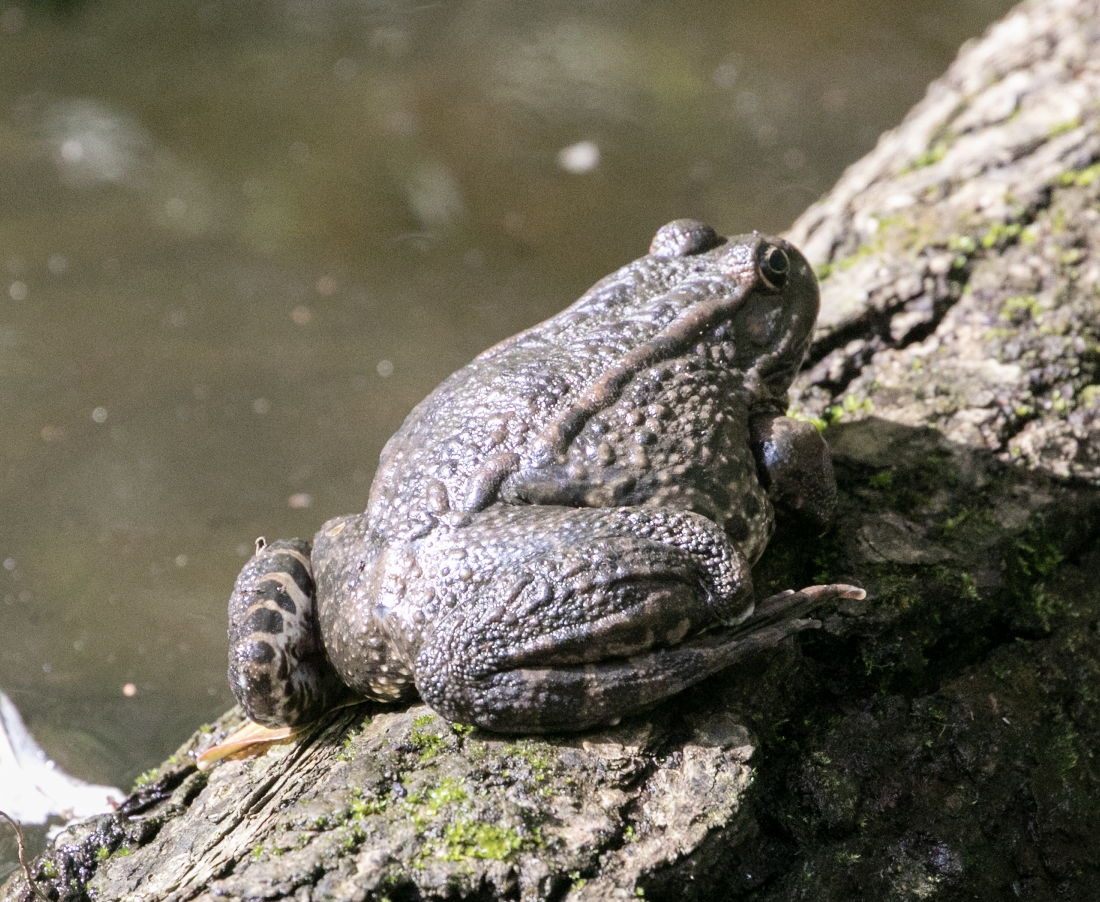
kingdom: Animalia
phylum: Chordata
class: Amphibia
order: Anura
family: Ranidae
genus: Pelophylax
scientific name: Pelophylax
